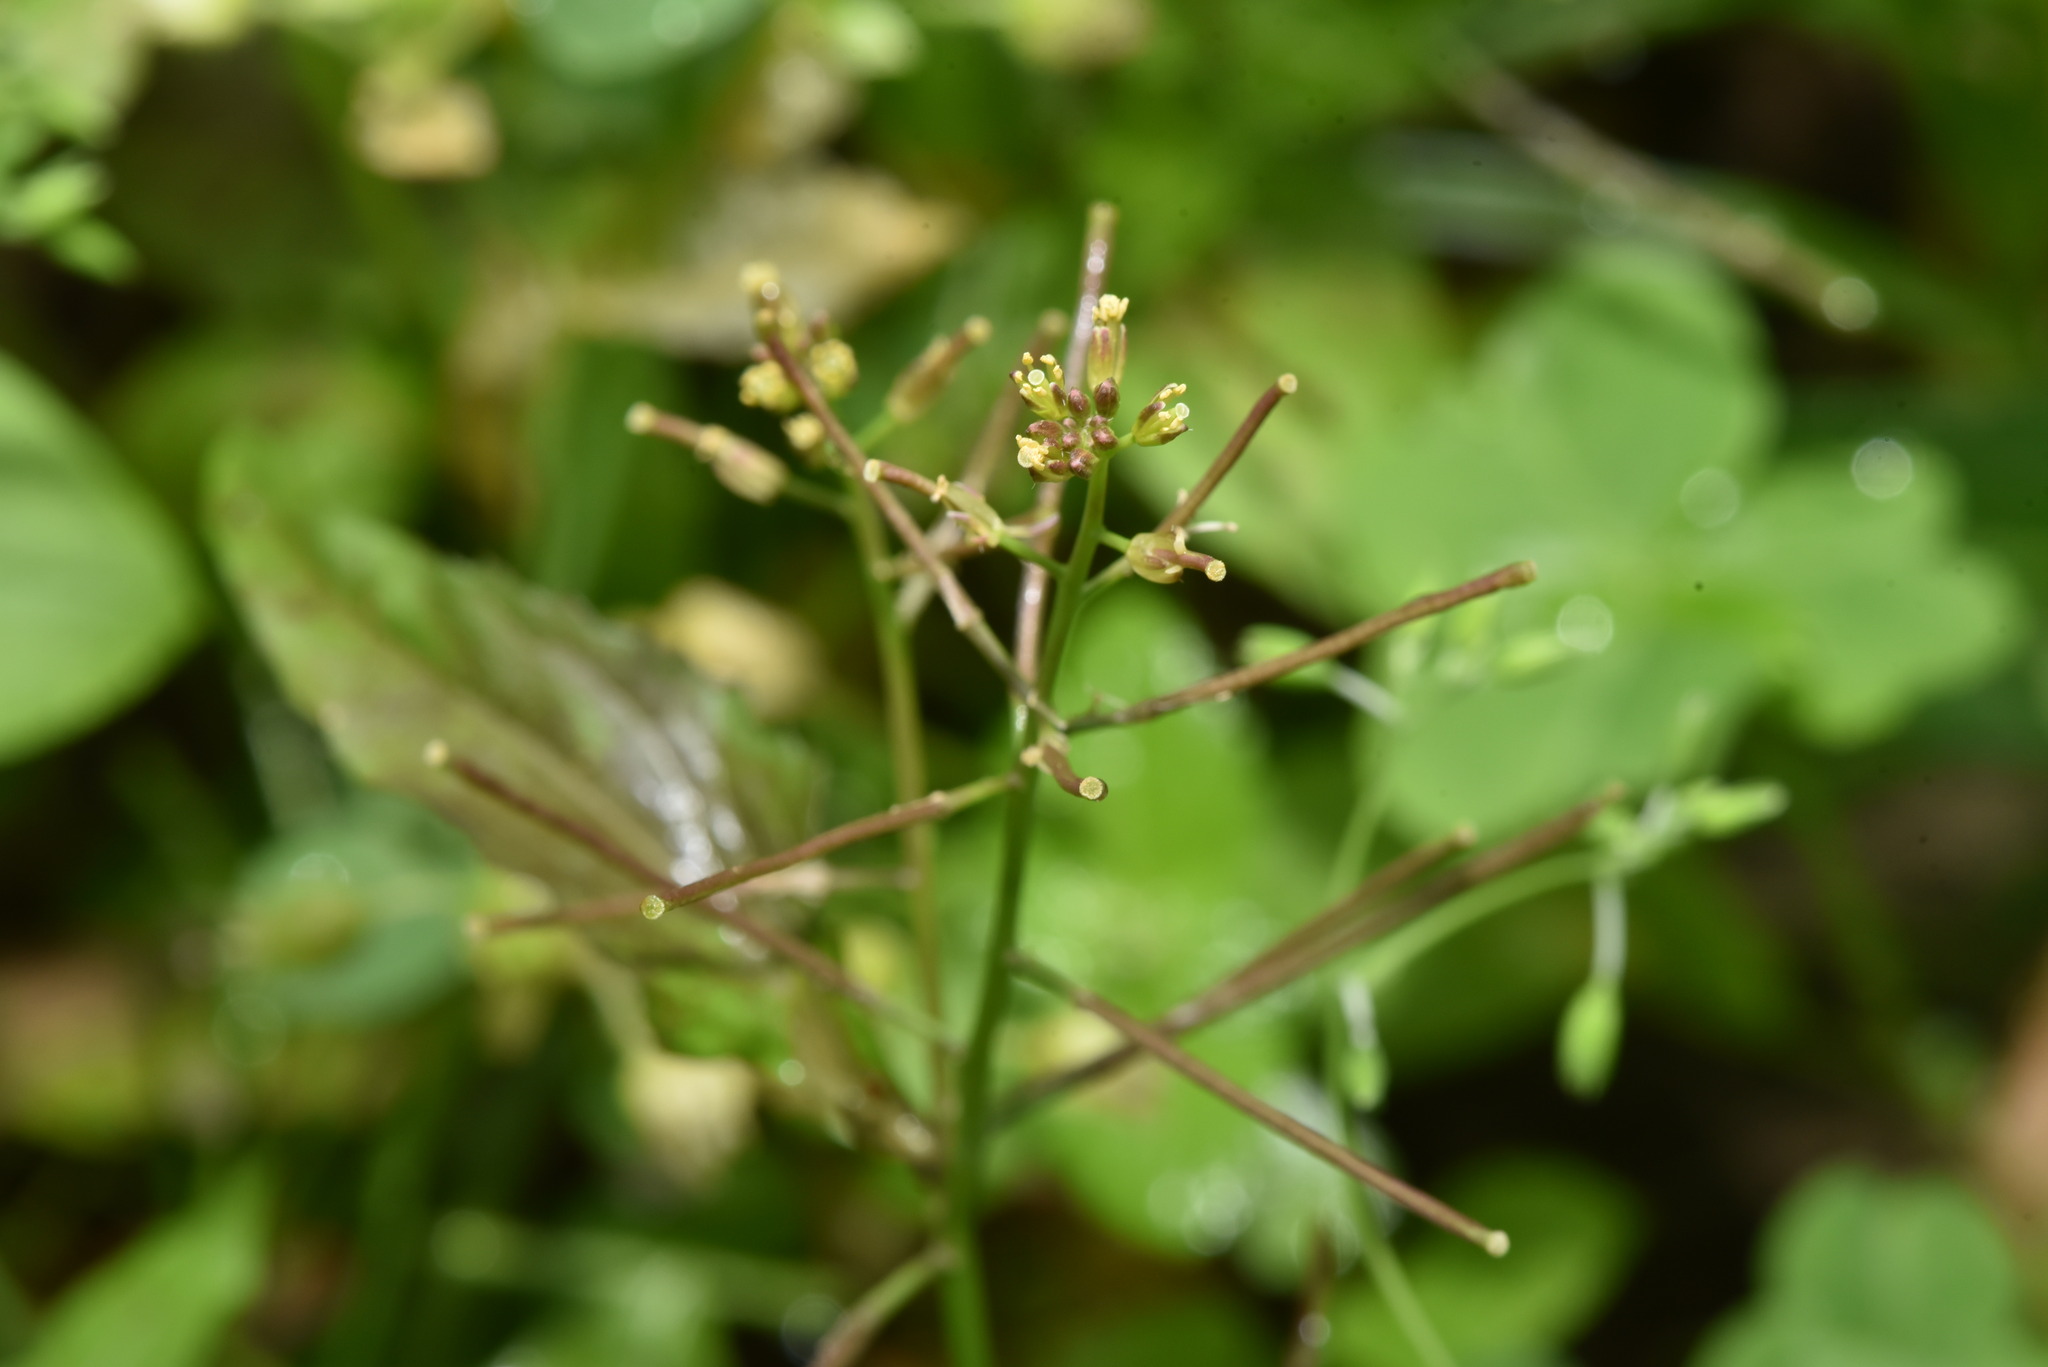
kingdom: Plantae
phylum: Tracheophyta
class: Magnoliopsida
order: Brassicales
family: Brassicaceae
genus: Rorippa
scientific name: Rorippa dubia
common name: Variableleaf yellowcress
